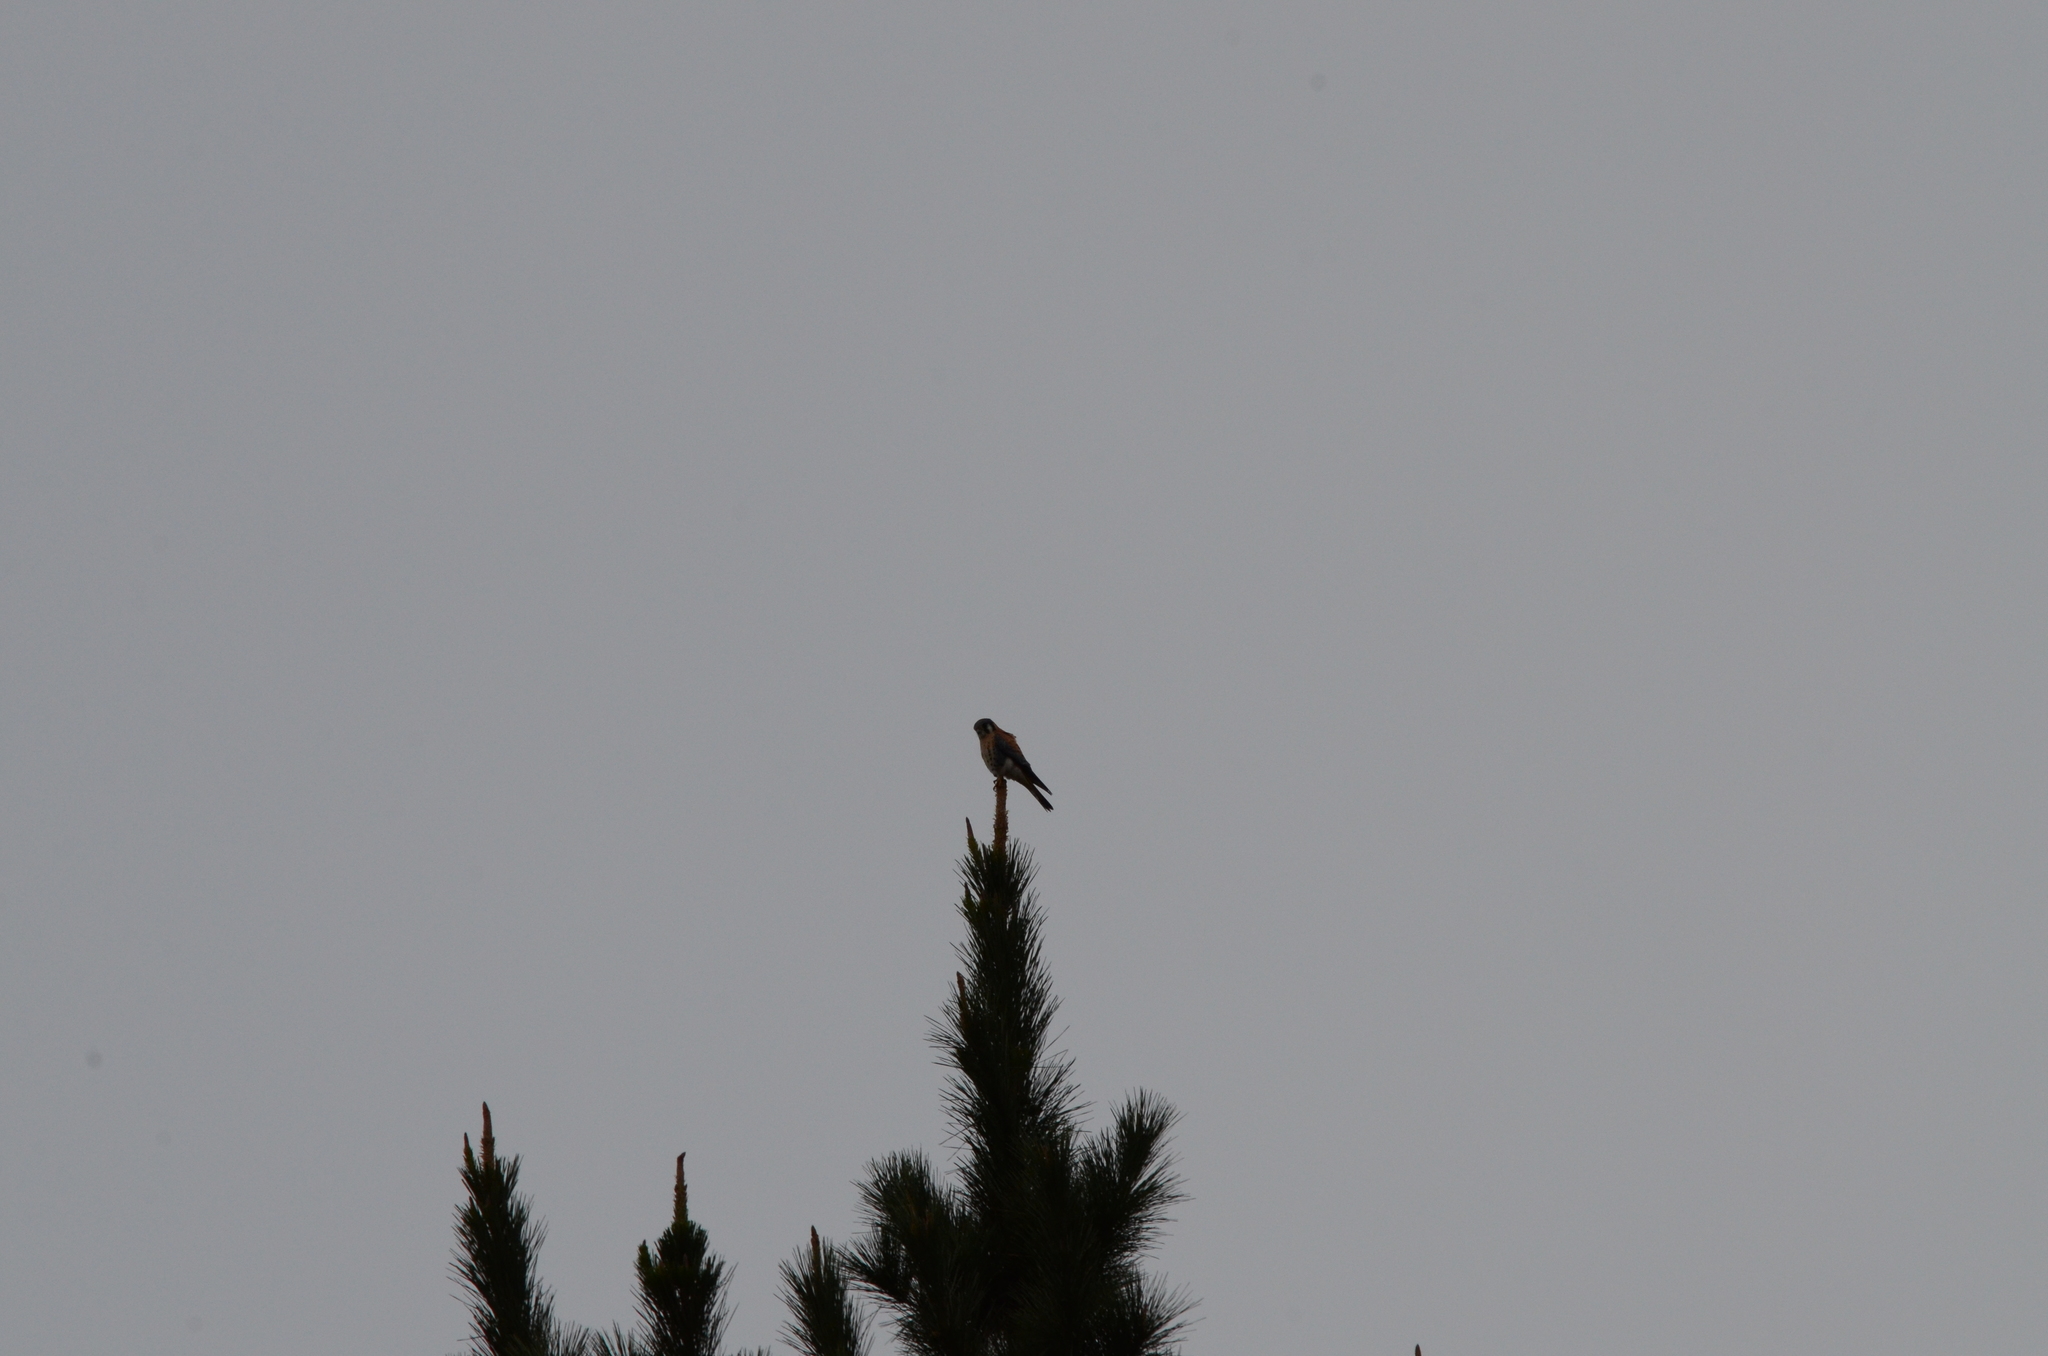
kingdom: Animalia
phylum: Chordata
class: Aves
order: Falconiformes
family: Falconidae
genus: Falco
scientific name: Falco sparverius
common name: American kestrel
